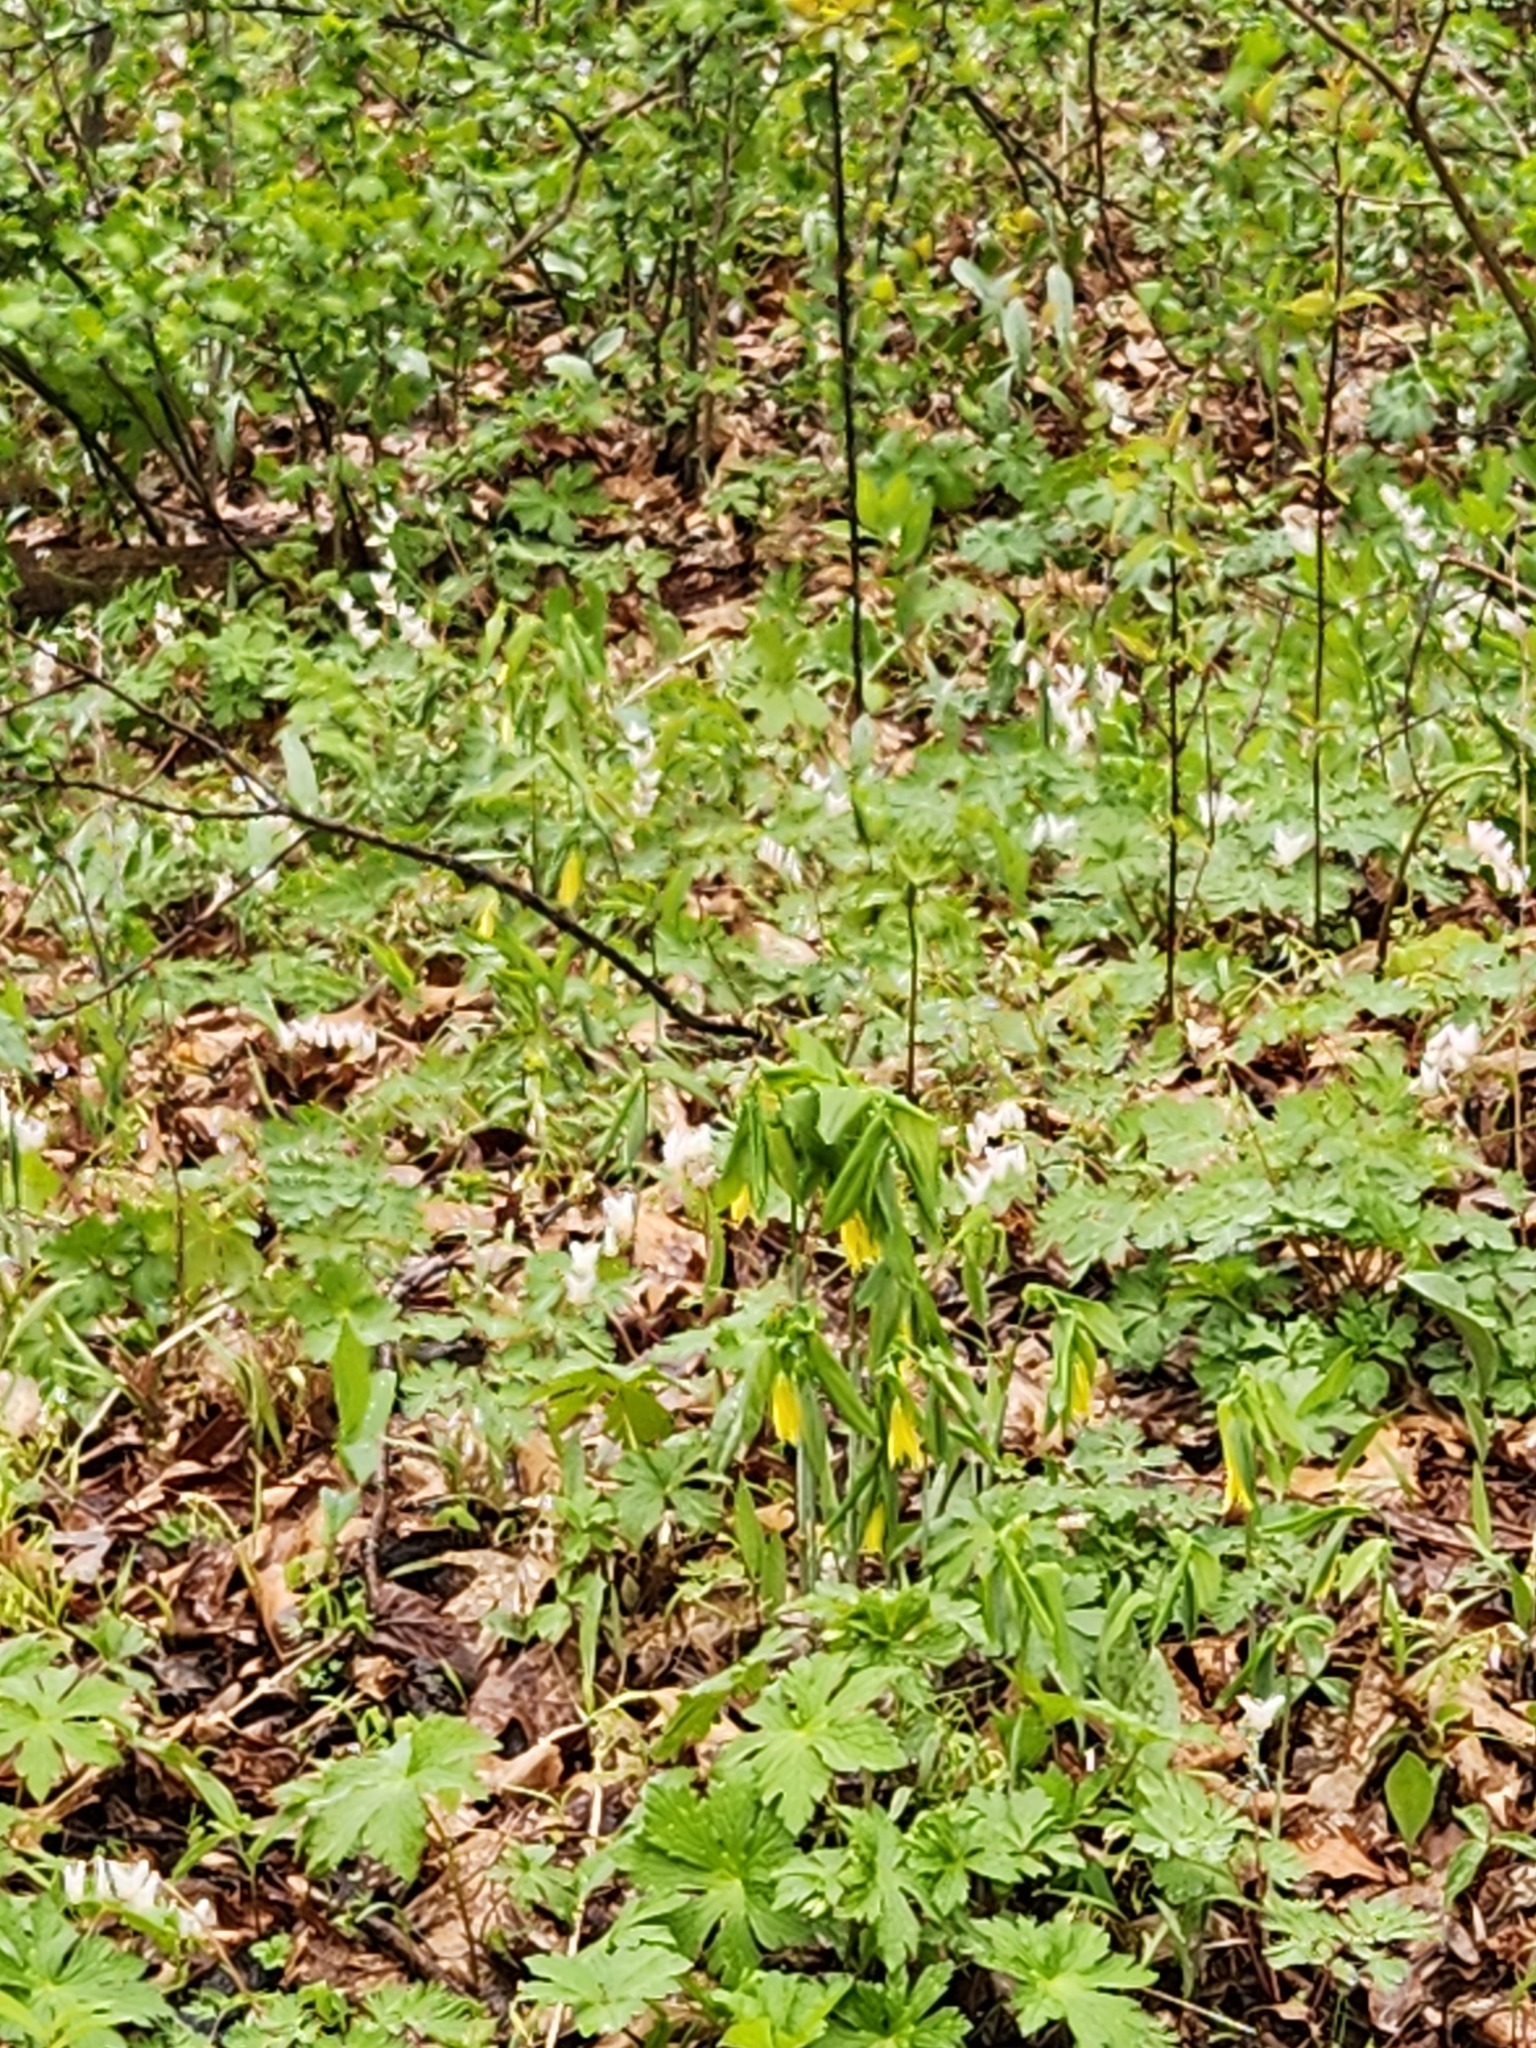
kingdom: Plantae
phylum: Tracheophyta
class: Liliopsida
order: Liliales
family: Colchicaceae
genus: Uvularia
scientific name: Uvularia grandiflora
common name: Bellwort
